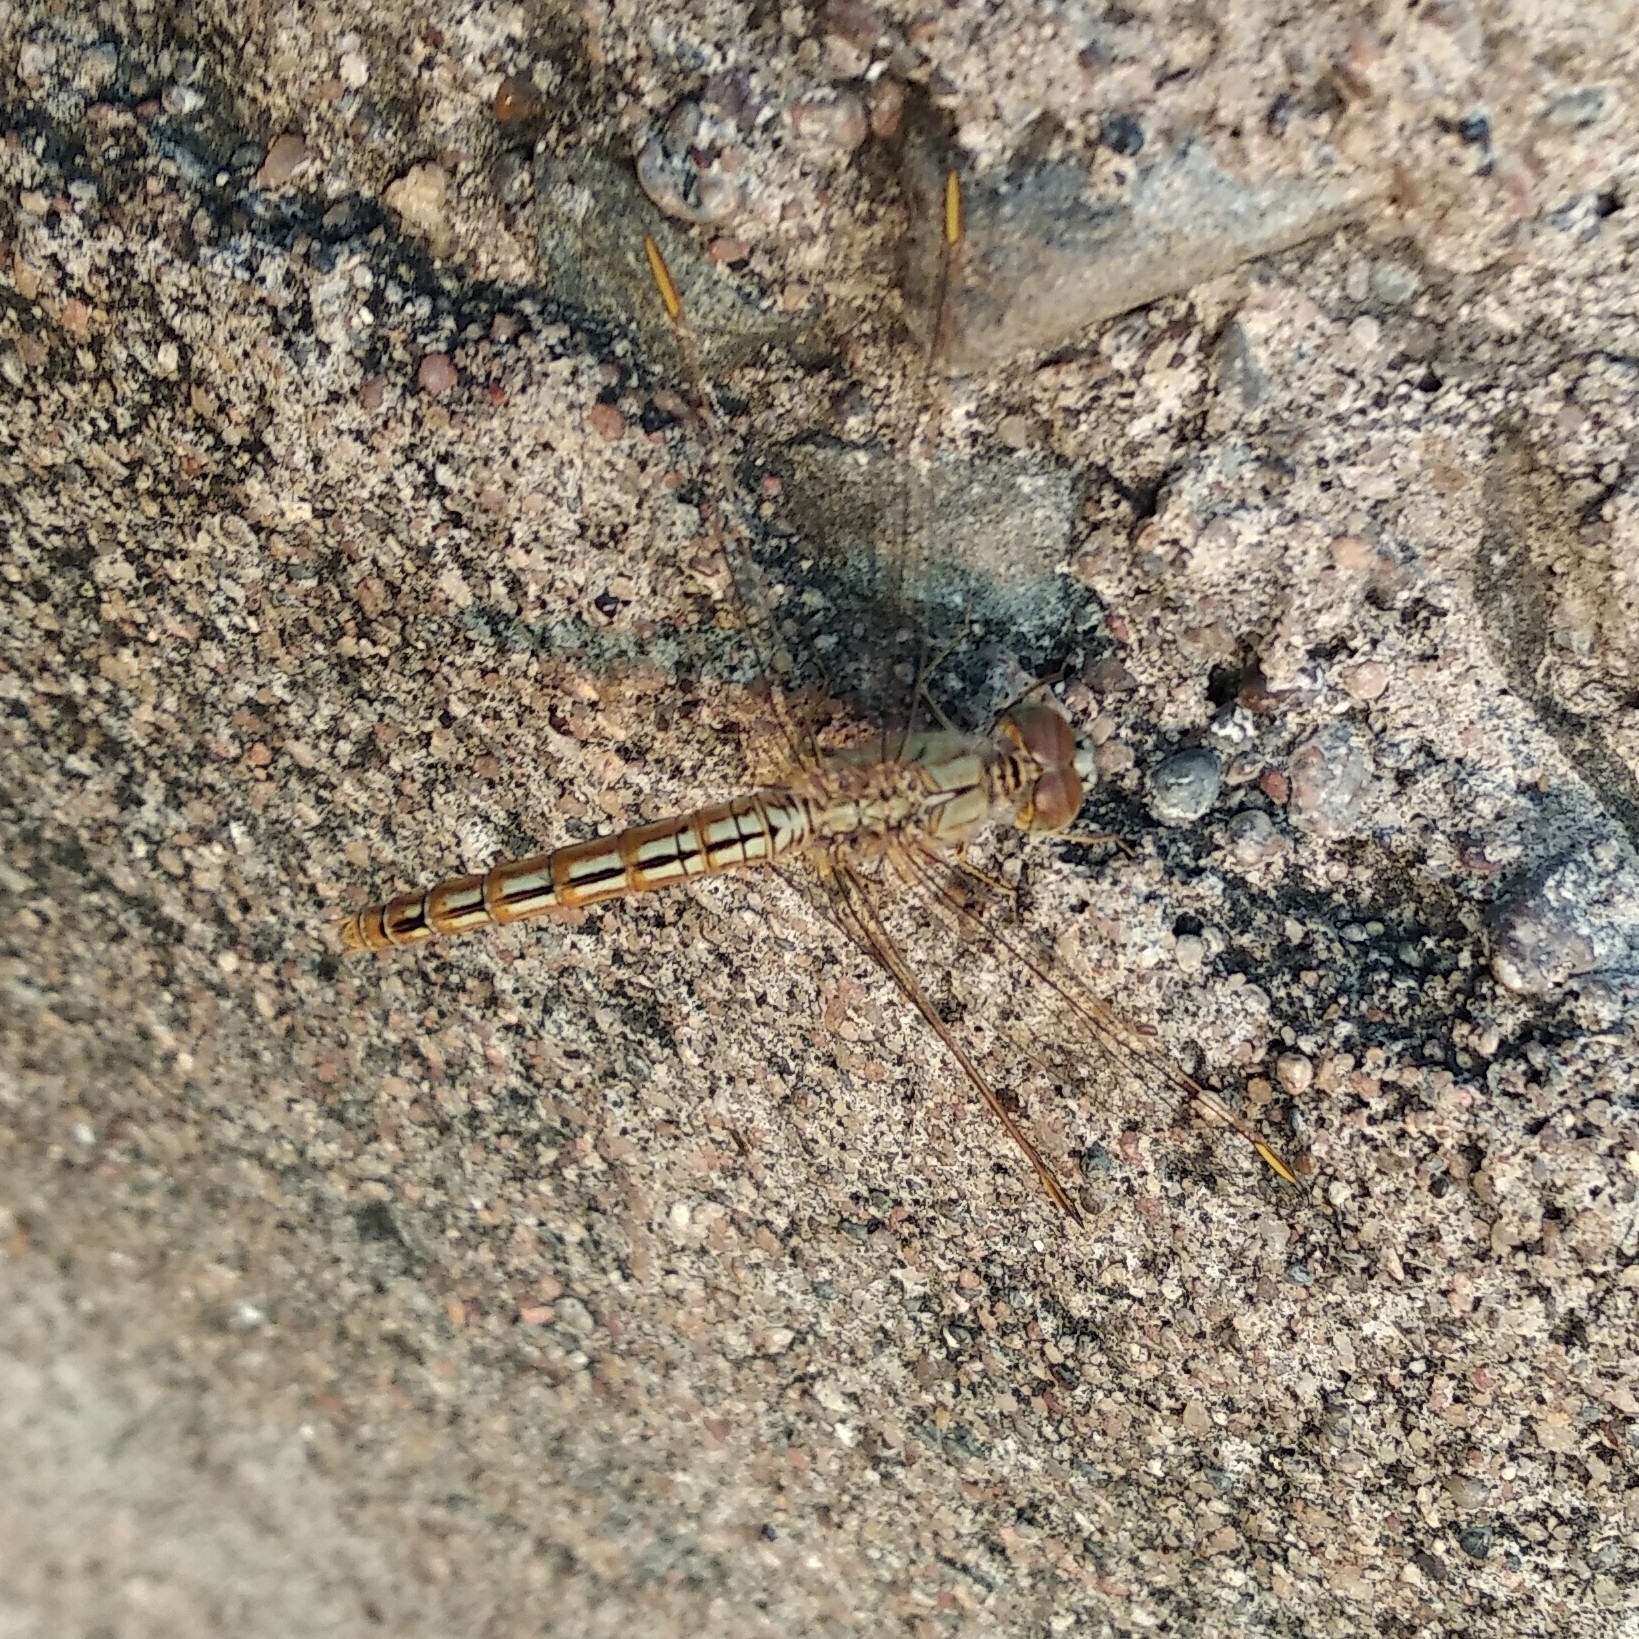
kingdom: Animalia
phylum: Arthropoda
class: Insecta
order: Odonata
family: Libellulidae
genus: Brachythemis
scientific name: Brachythemis contaminata
